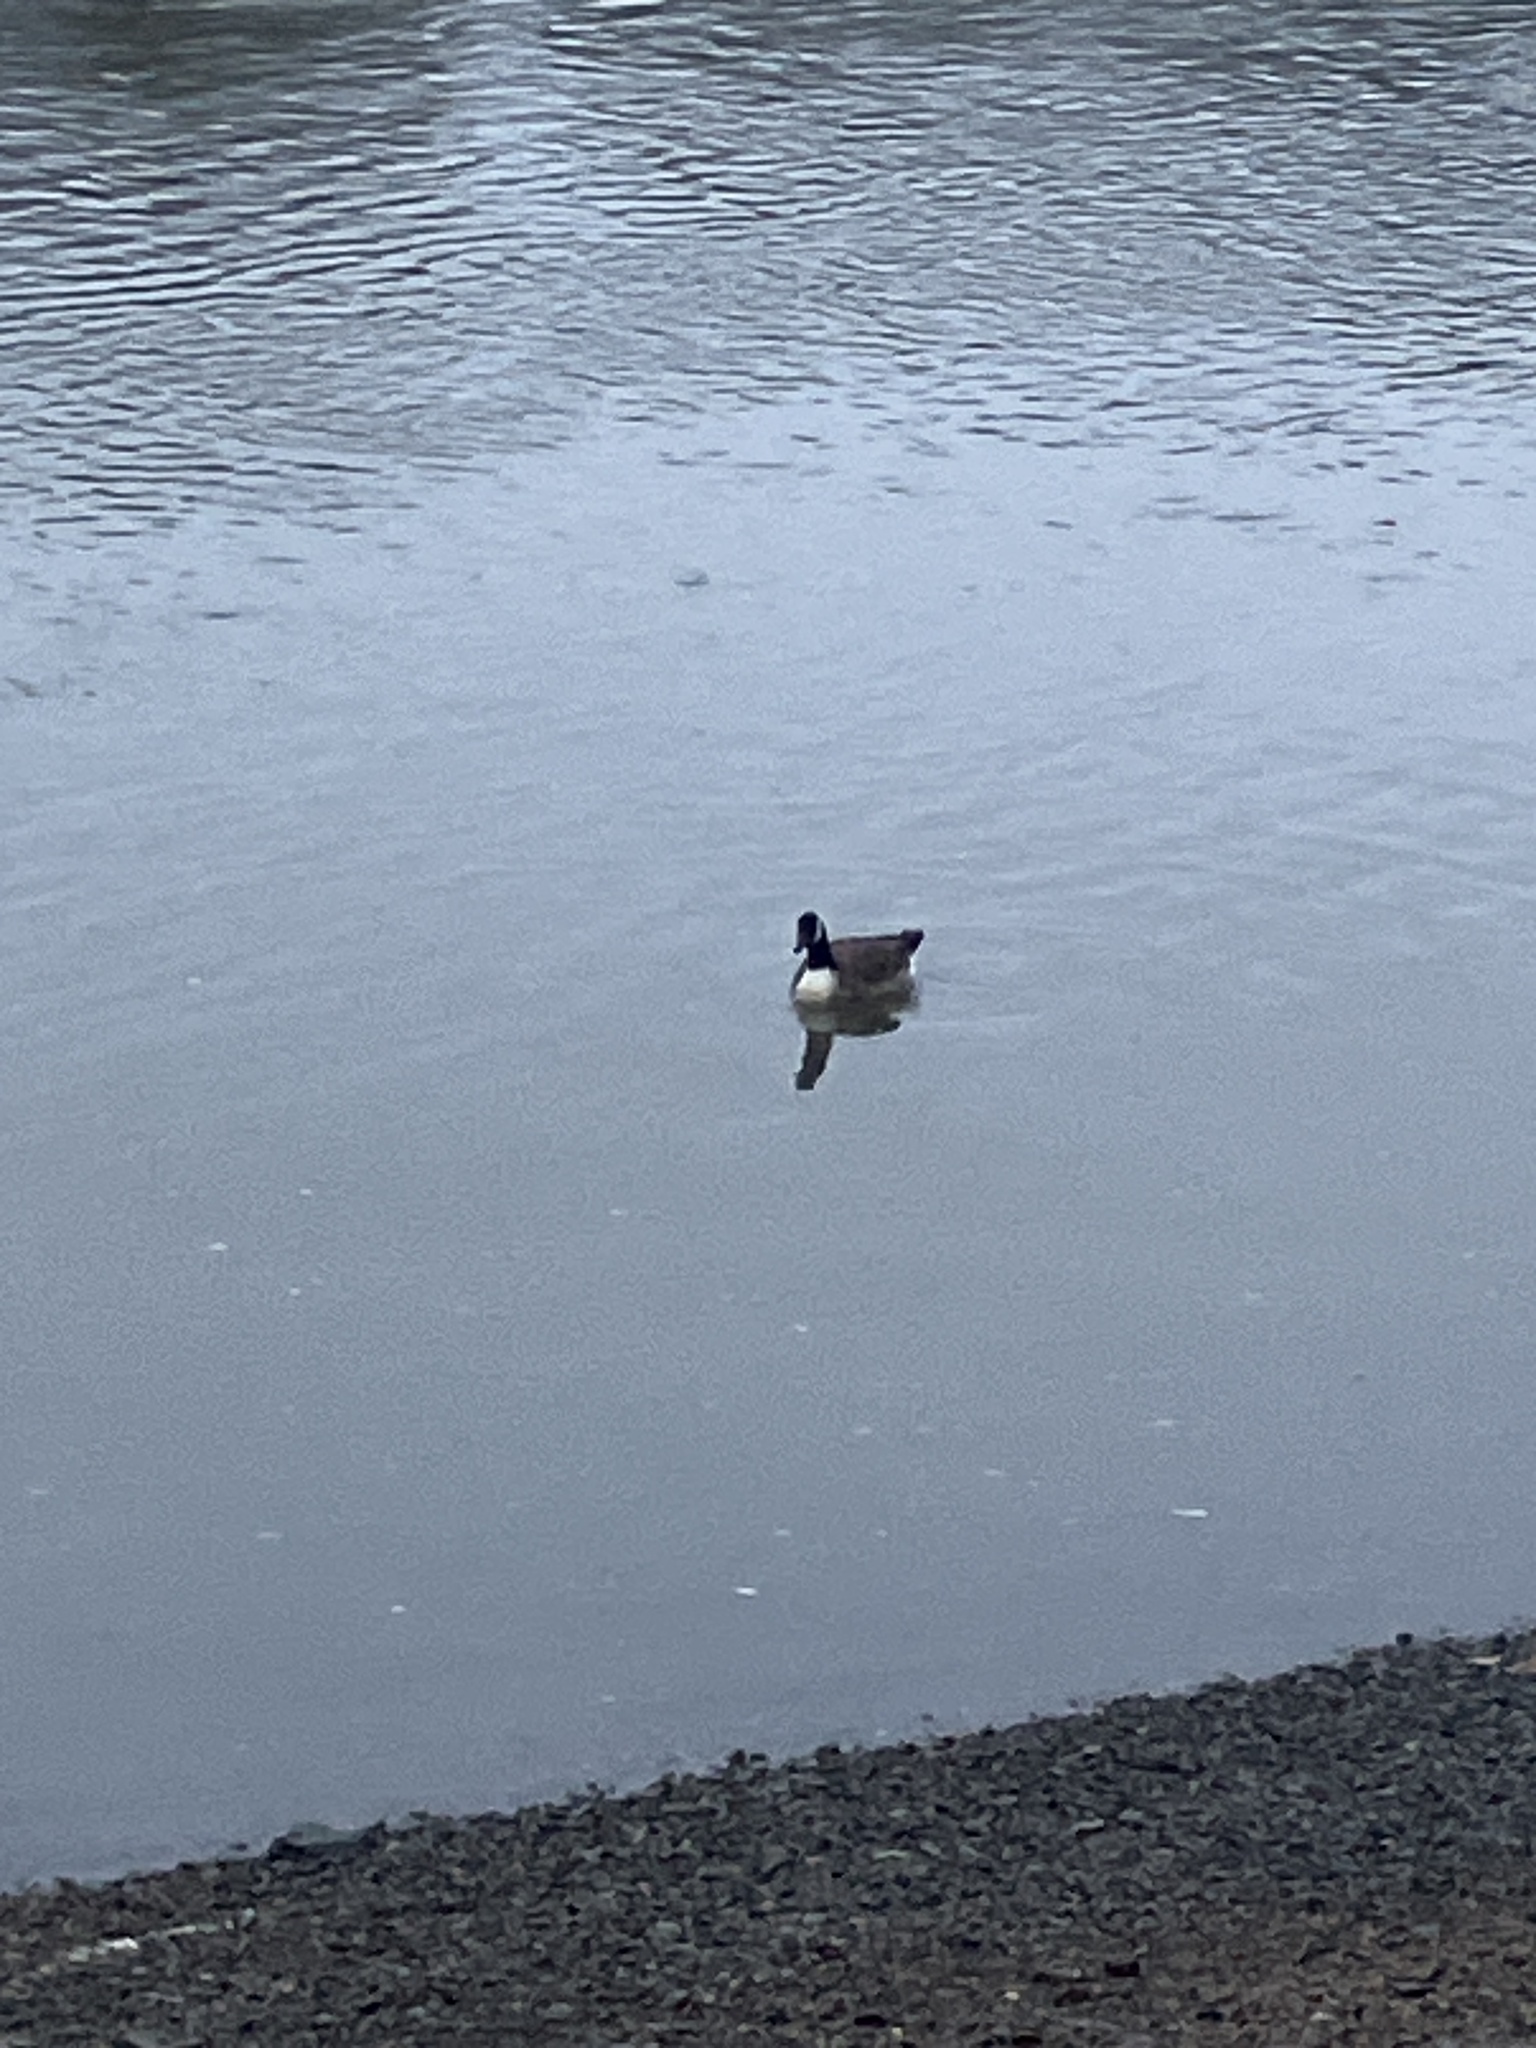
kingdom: Animalia
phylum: Chordata
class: Aves
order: Anseriformes
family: Anatidae
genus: Branta
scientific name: Branta canadensis
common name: Canada goose
